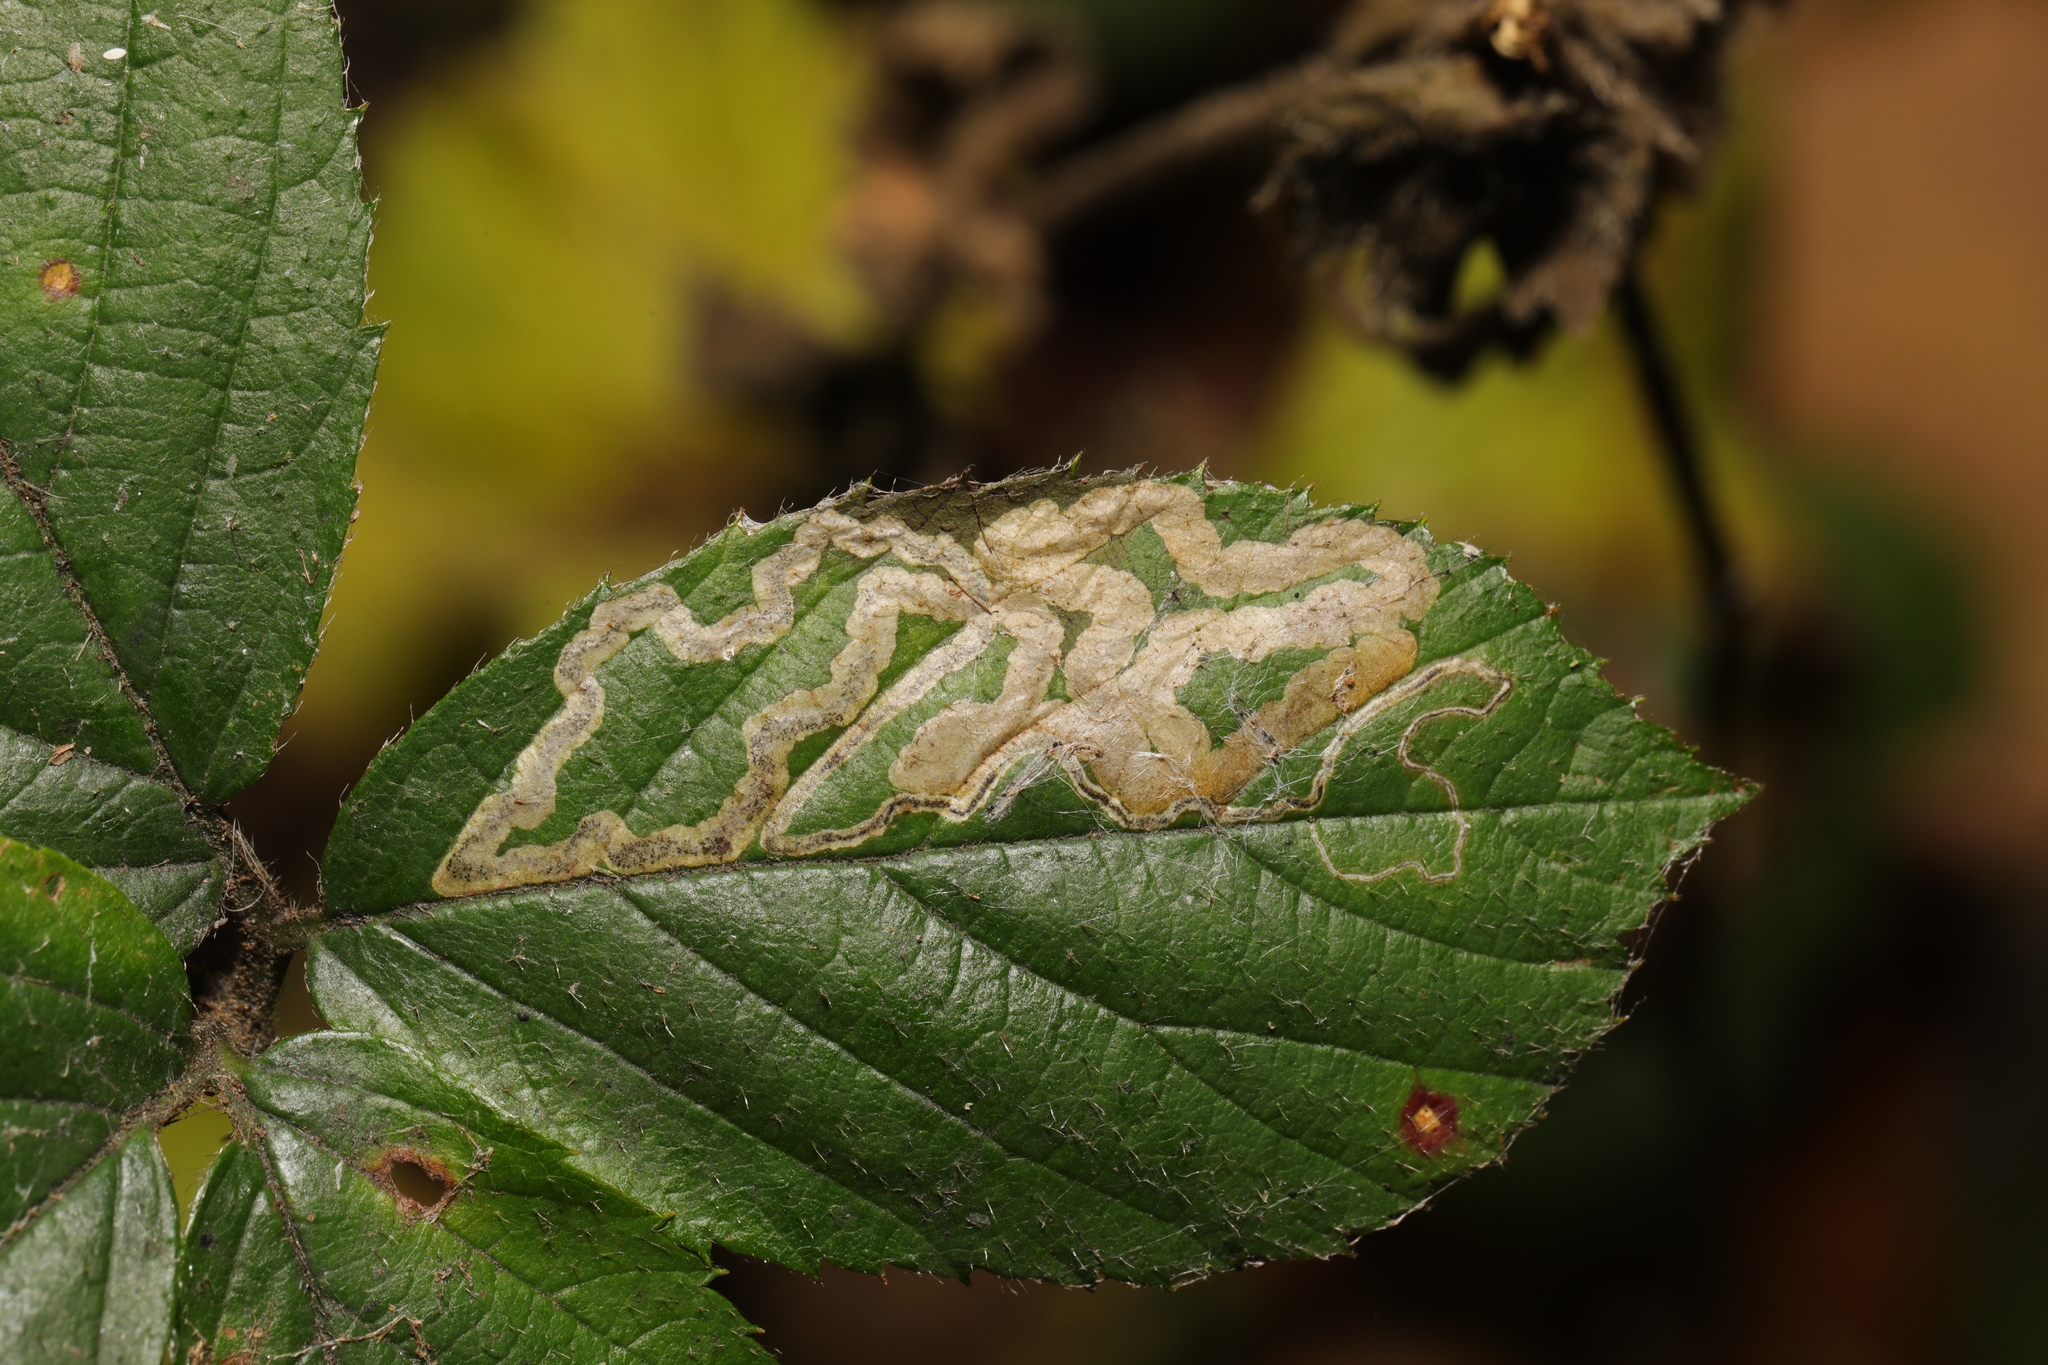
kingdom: Animalia
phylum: Arthropoda
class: Insecta
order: Lepidoptera
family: Nepticulidae
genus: Stigmella
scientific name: Stigmella aurella
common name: Golden pigmy
